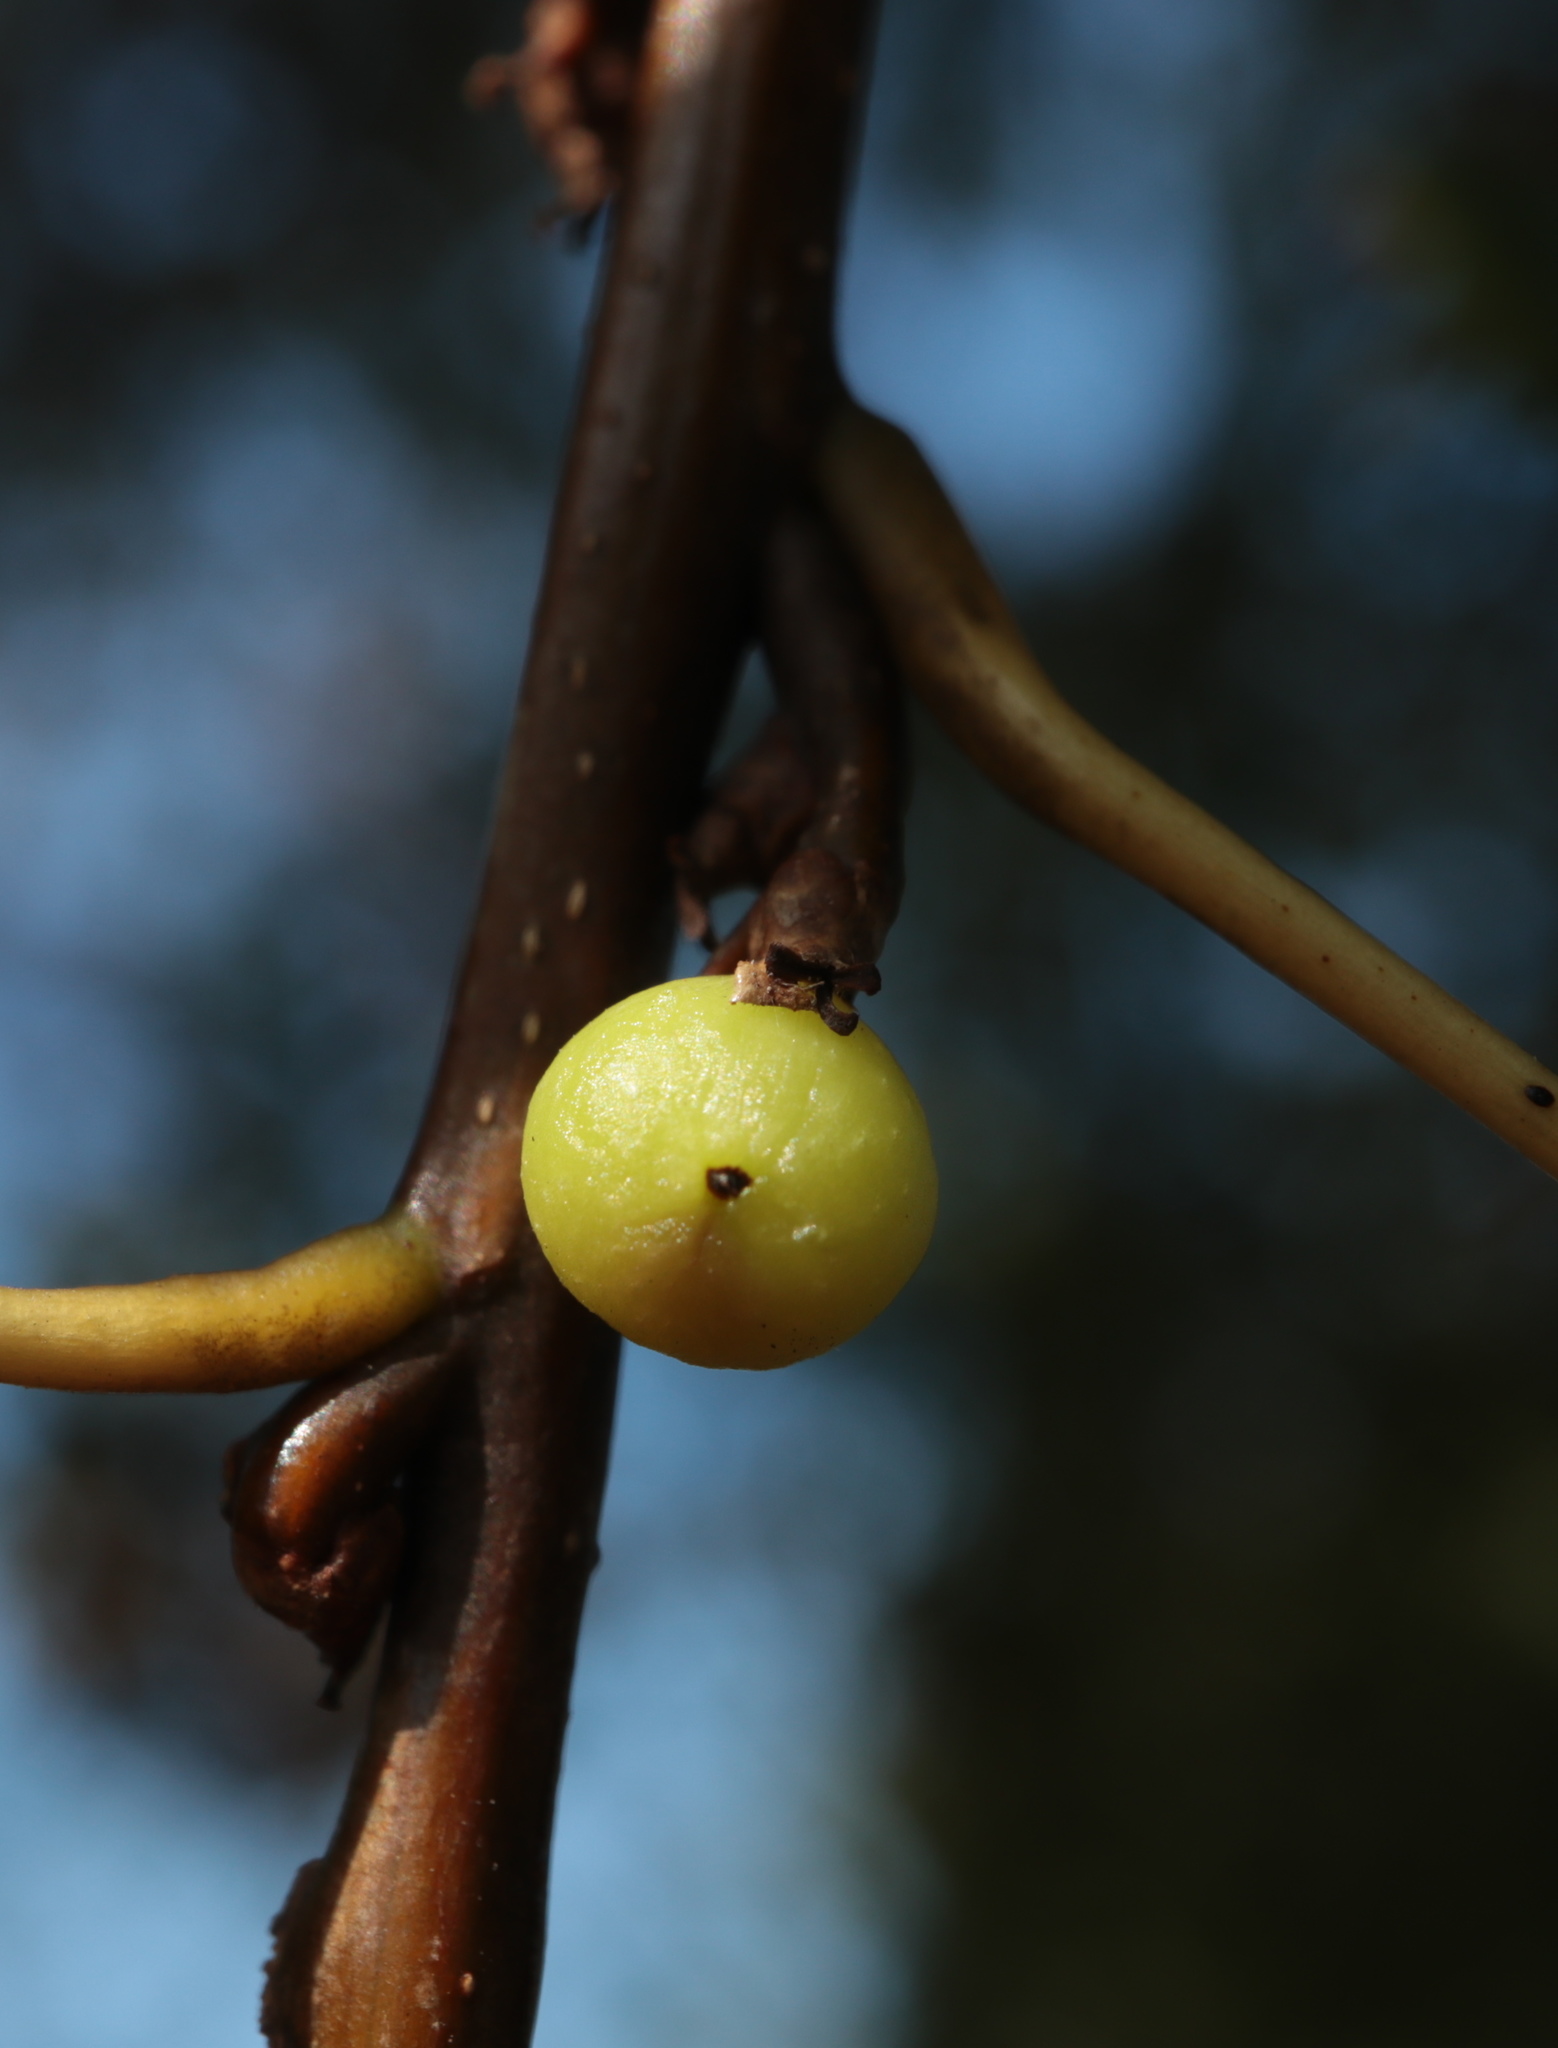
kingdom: Animalia
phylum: Arthropoda
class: Insecta
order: Hymenoptera
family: Cynipidae
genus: Callirhytis
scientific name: Callirhytis
